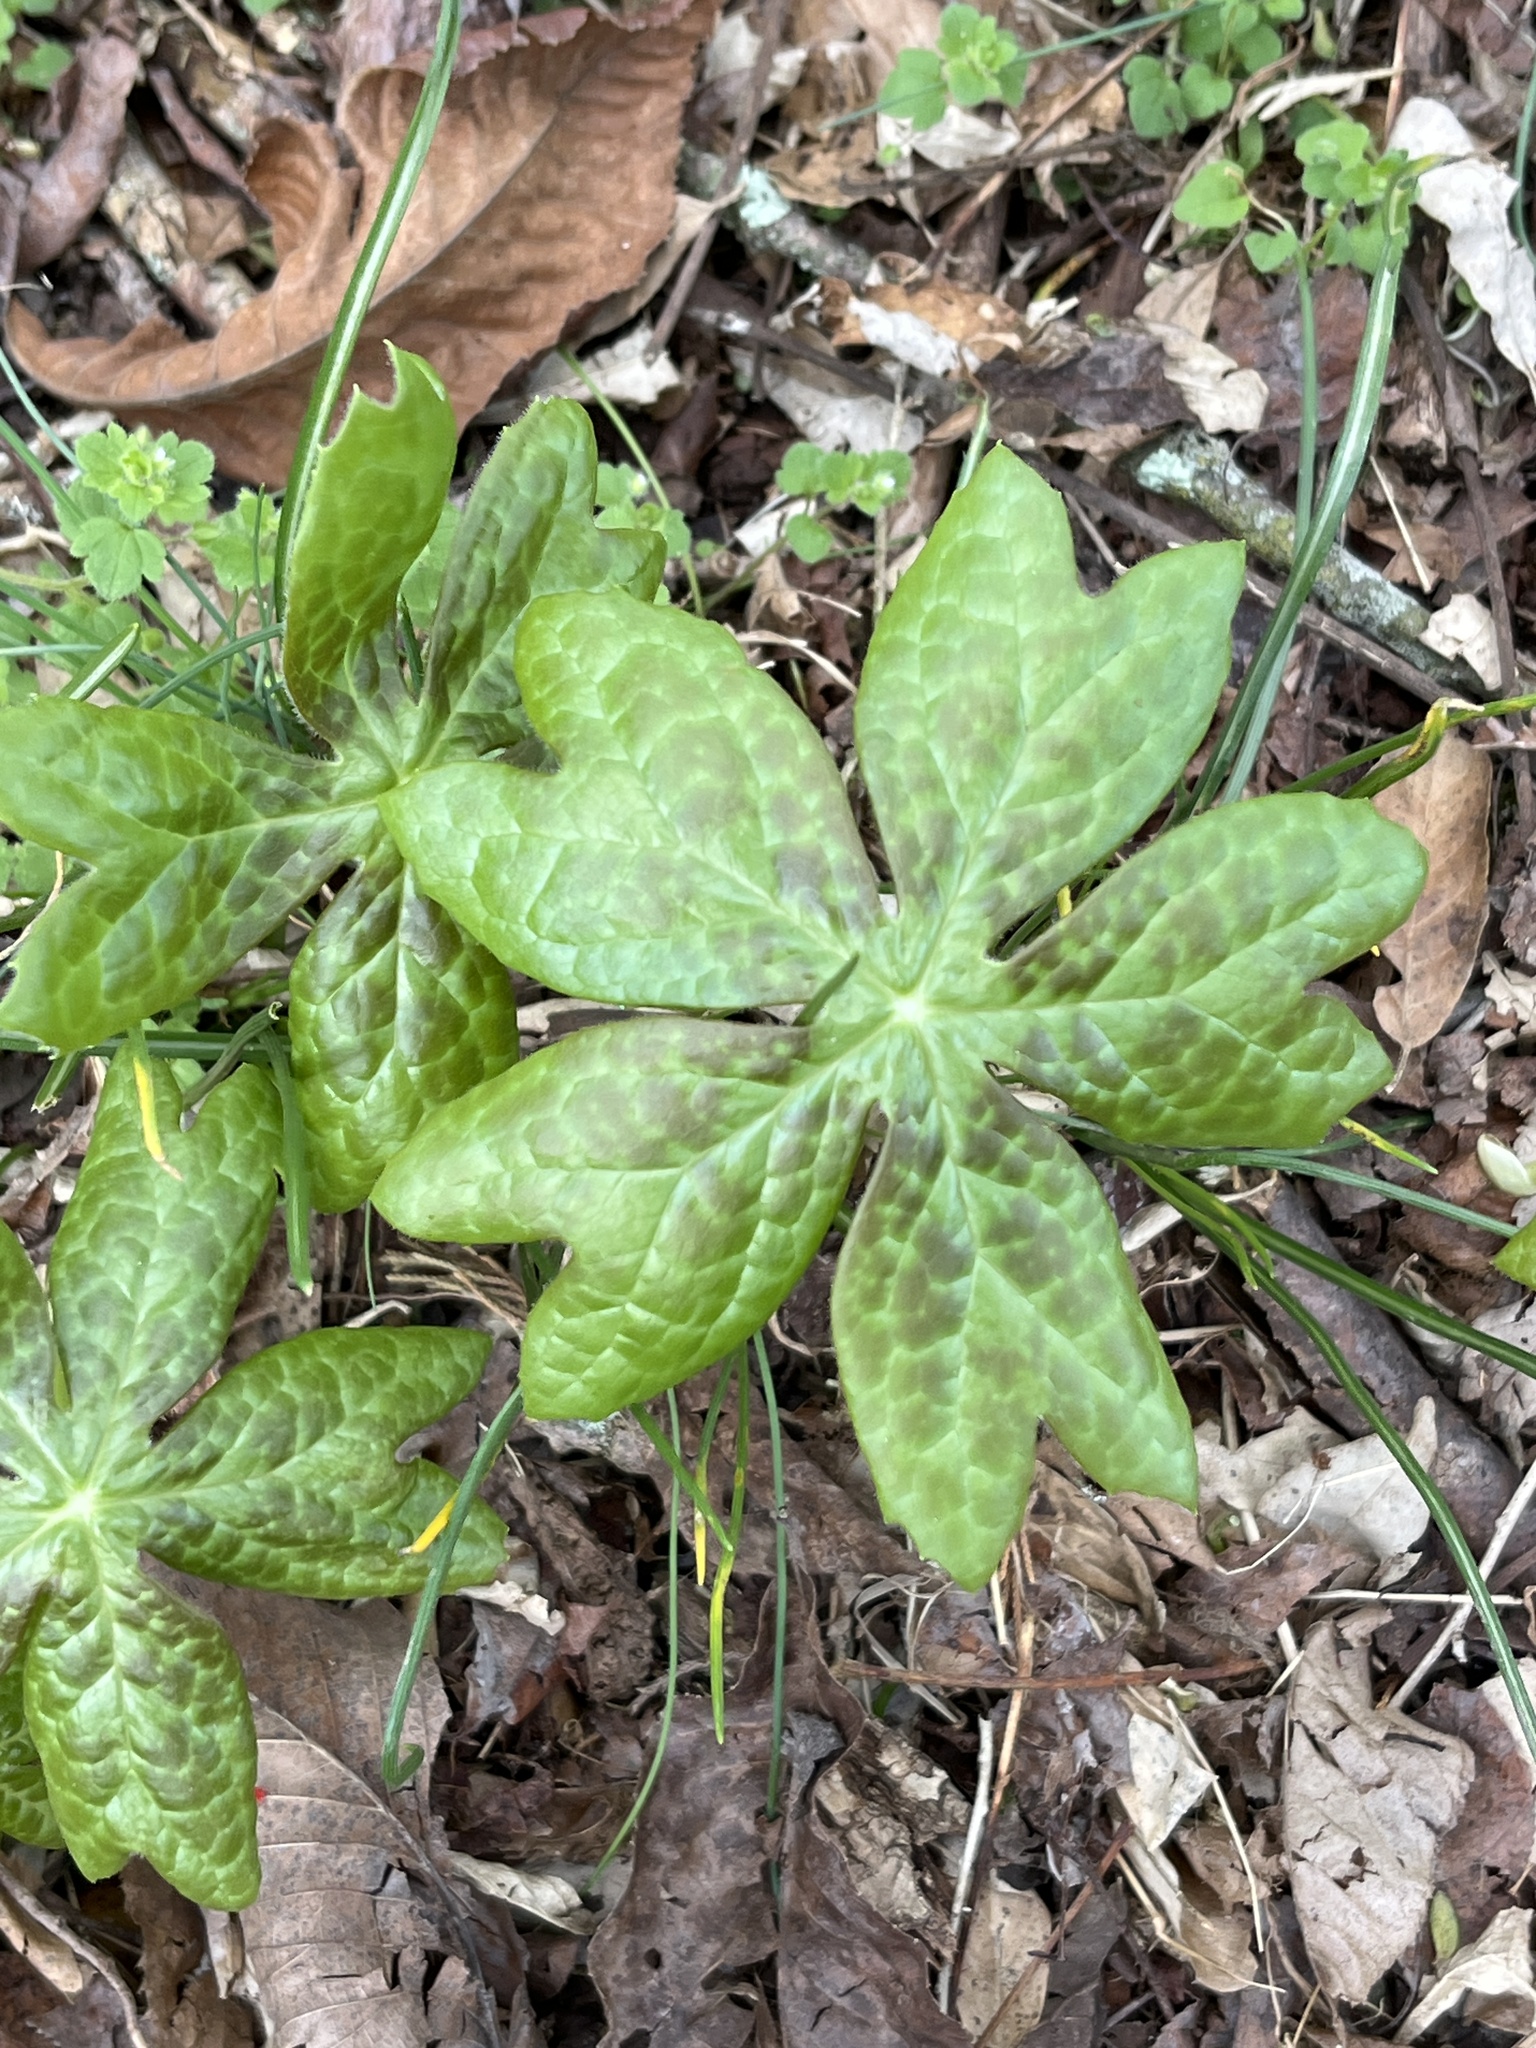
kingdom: Plantae
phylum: Tracheophyta
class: Magnoliopsida
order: Ranunculales
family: Berberidaceae
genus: Podophyllum
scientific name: Podophyllum peltatum
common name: Wild mandrake
